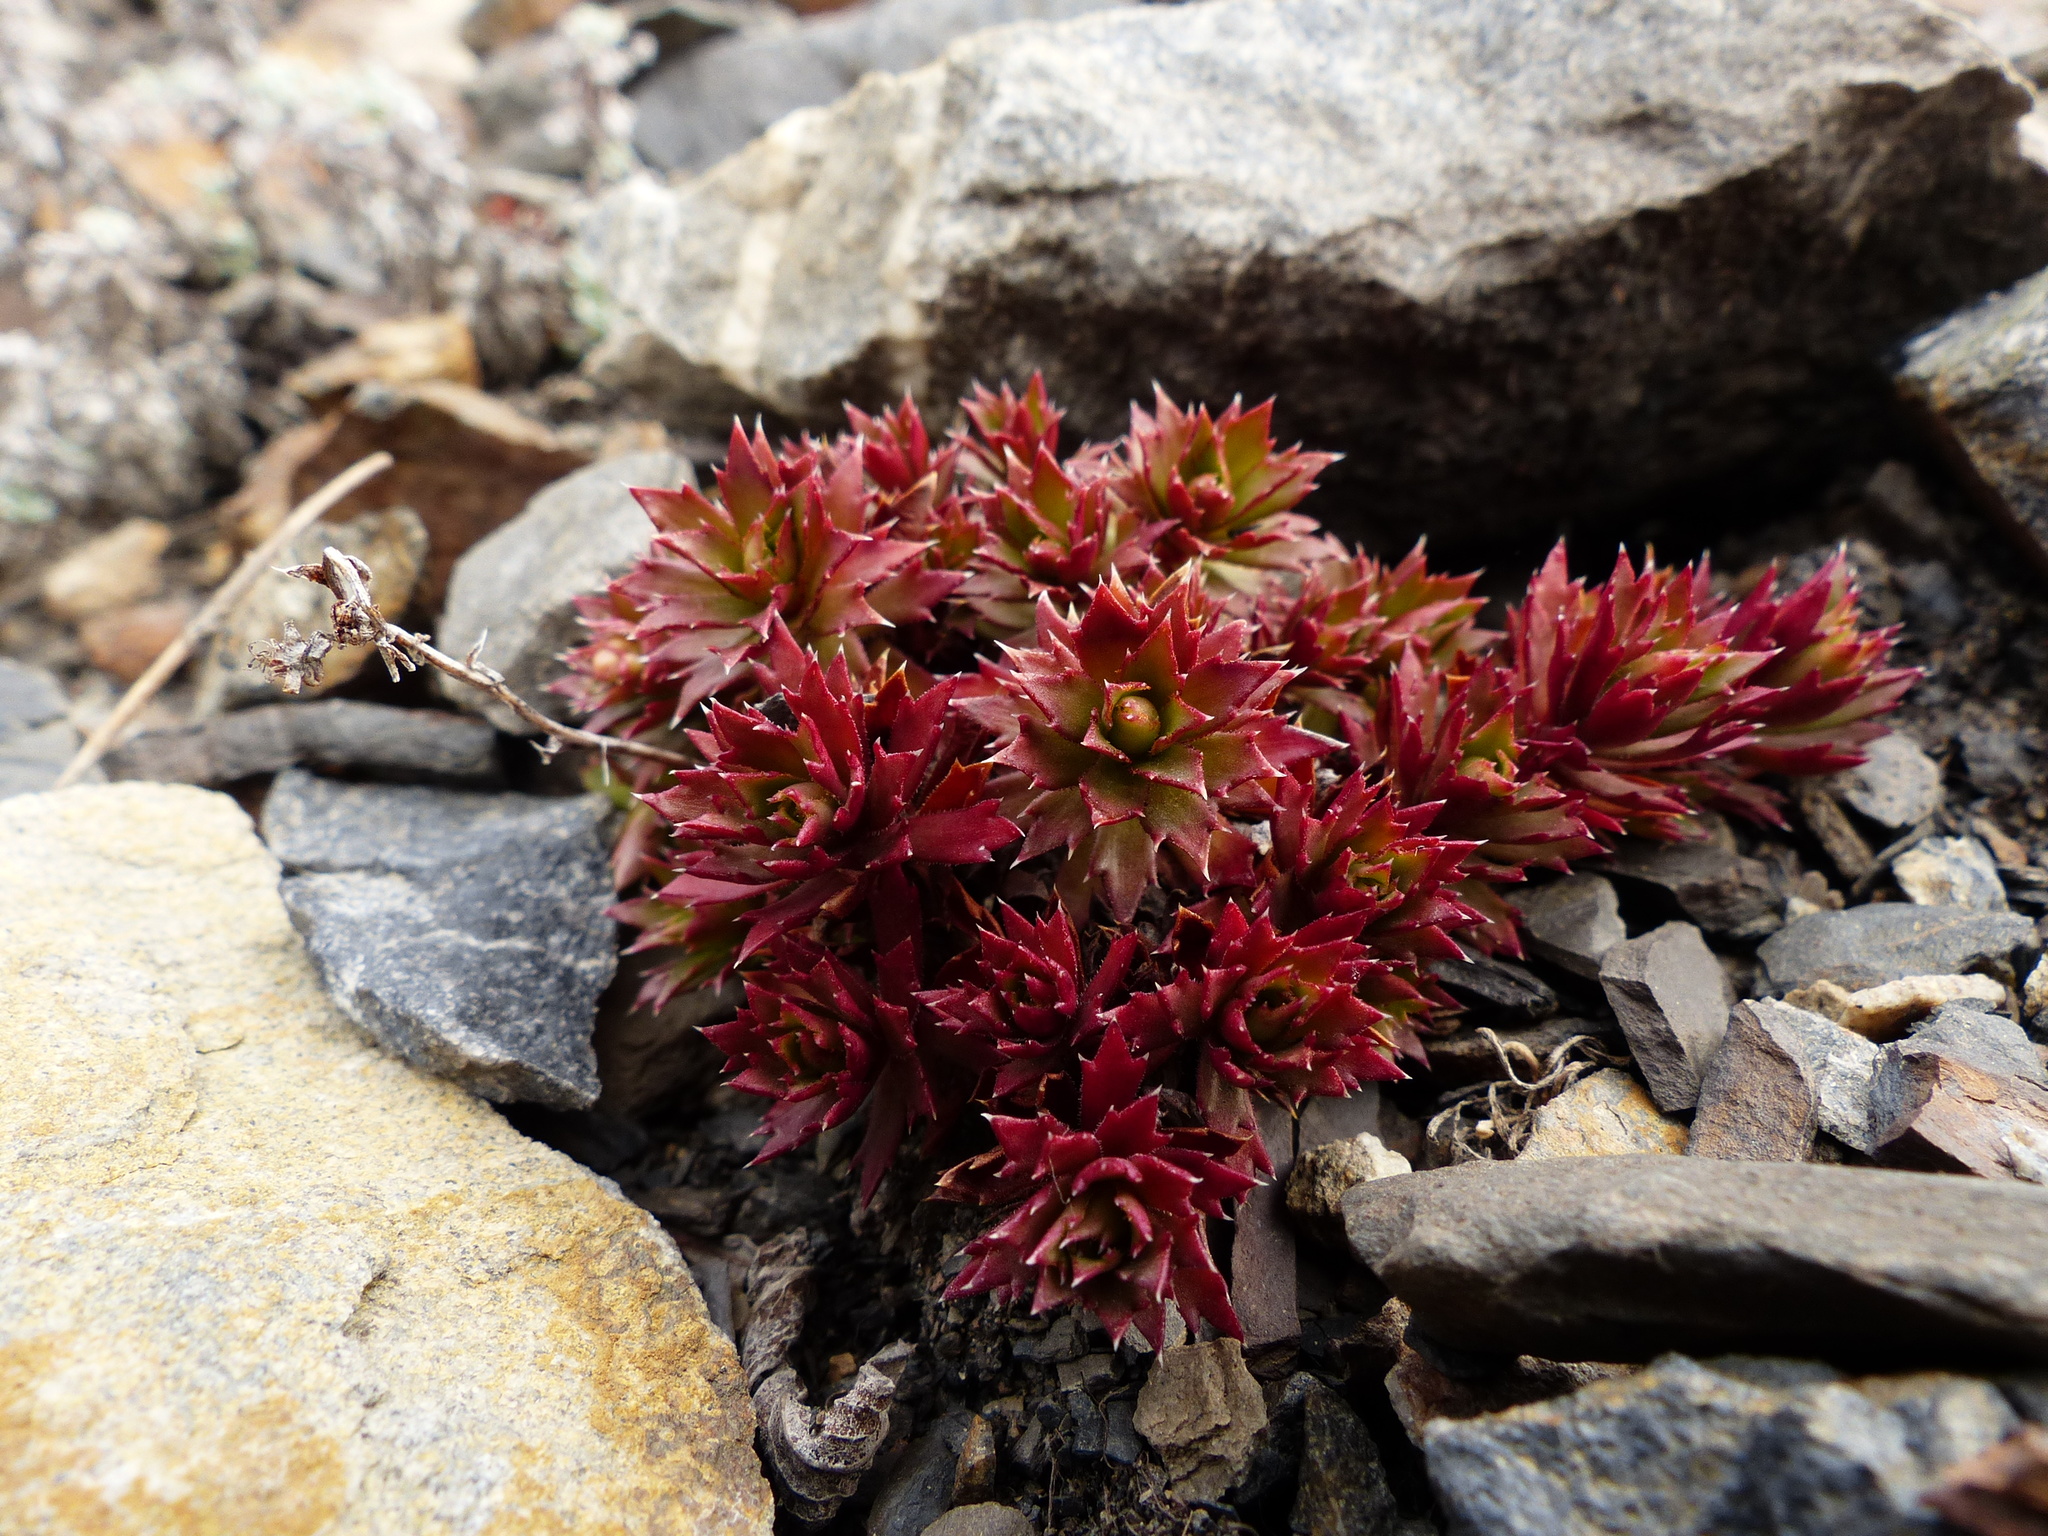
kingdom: Plantae
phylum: Tracheophyta
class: Magnoliopsida
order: Saxifragales
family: Saxifragaceae
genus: Saxifraga
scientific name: Saxifraga tricuspidata
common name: Prickly saxifrage
